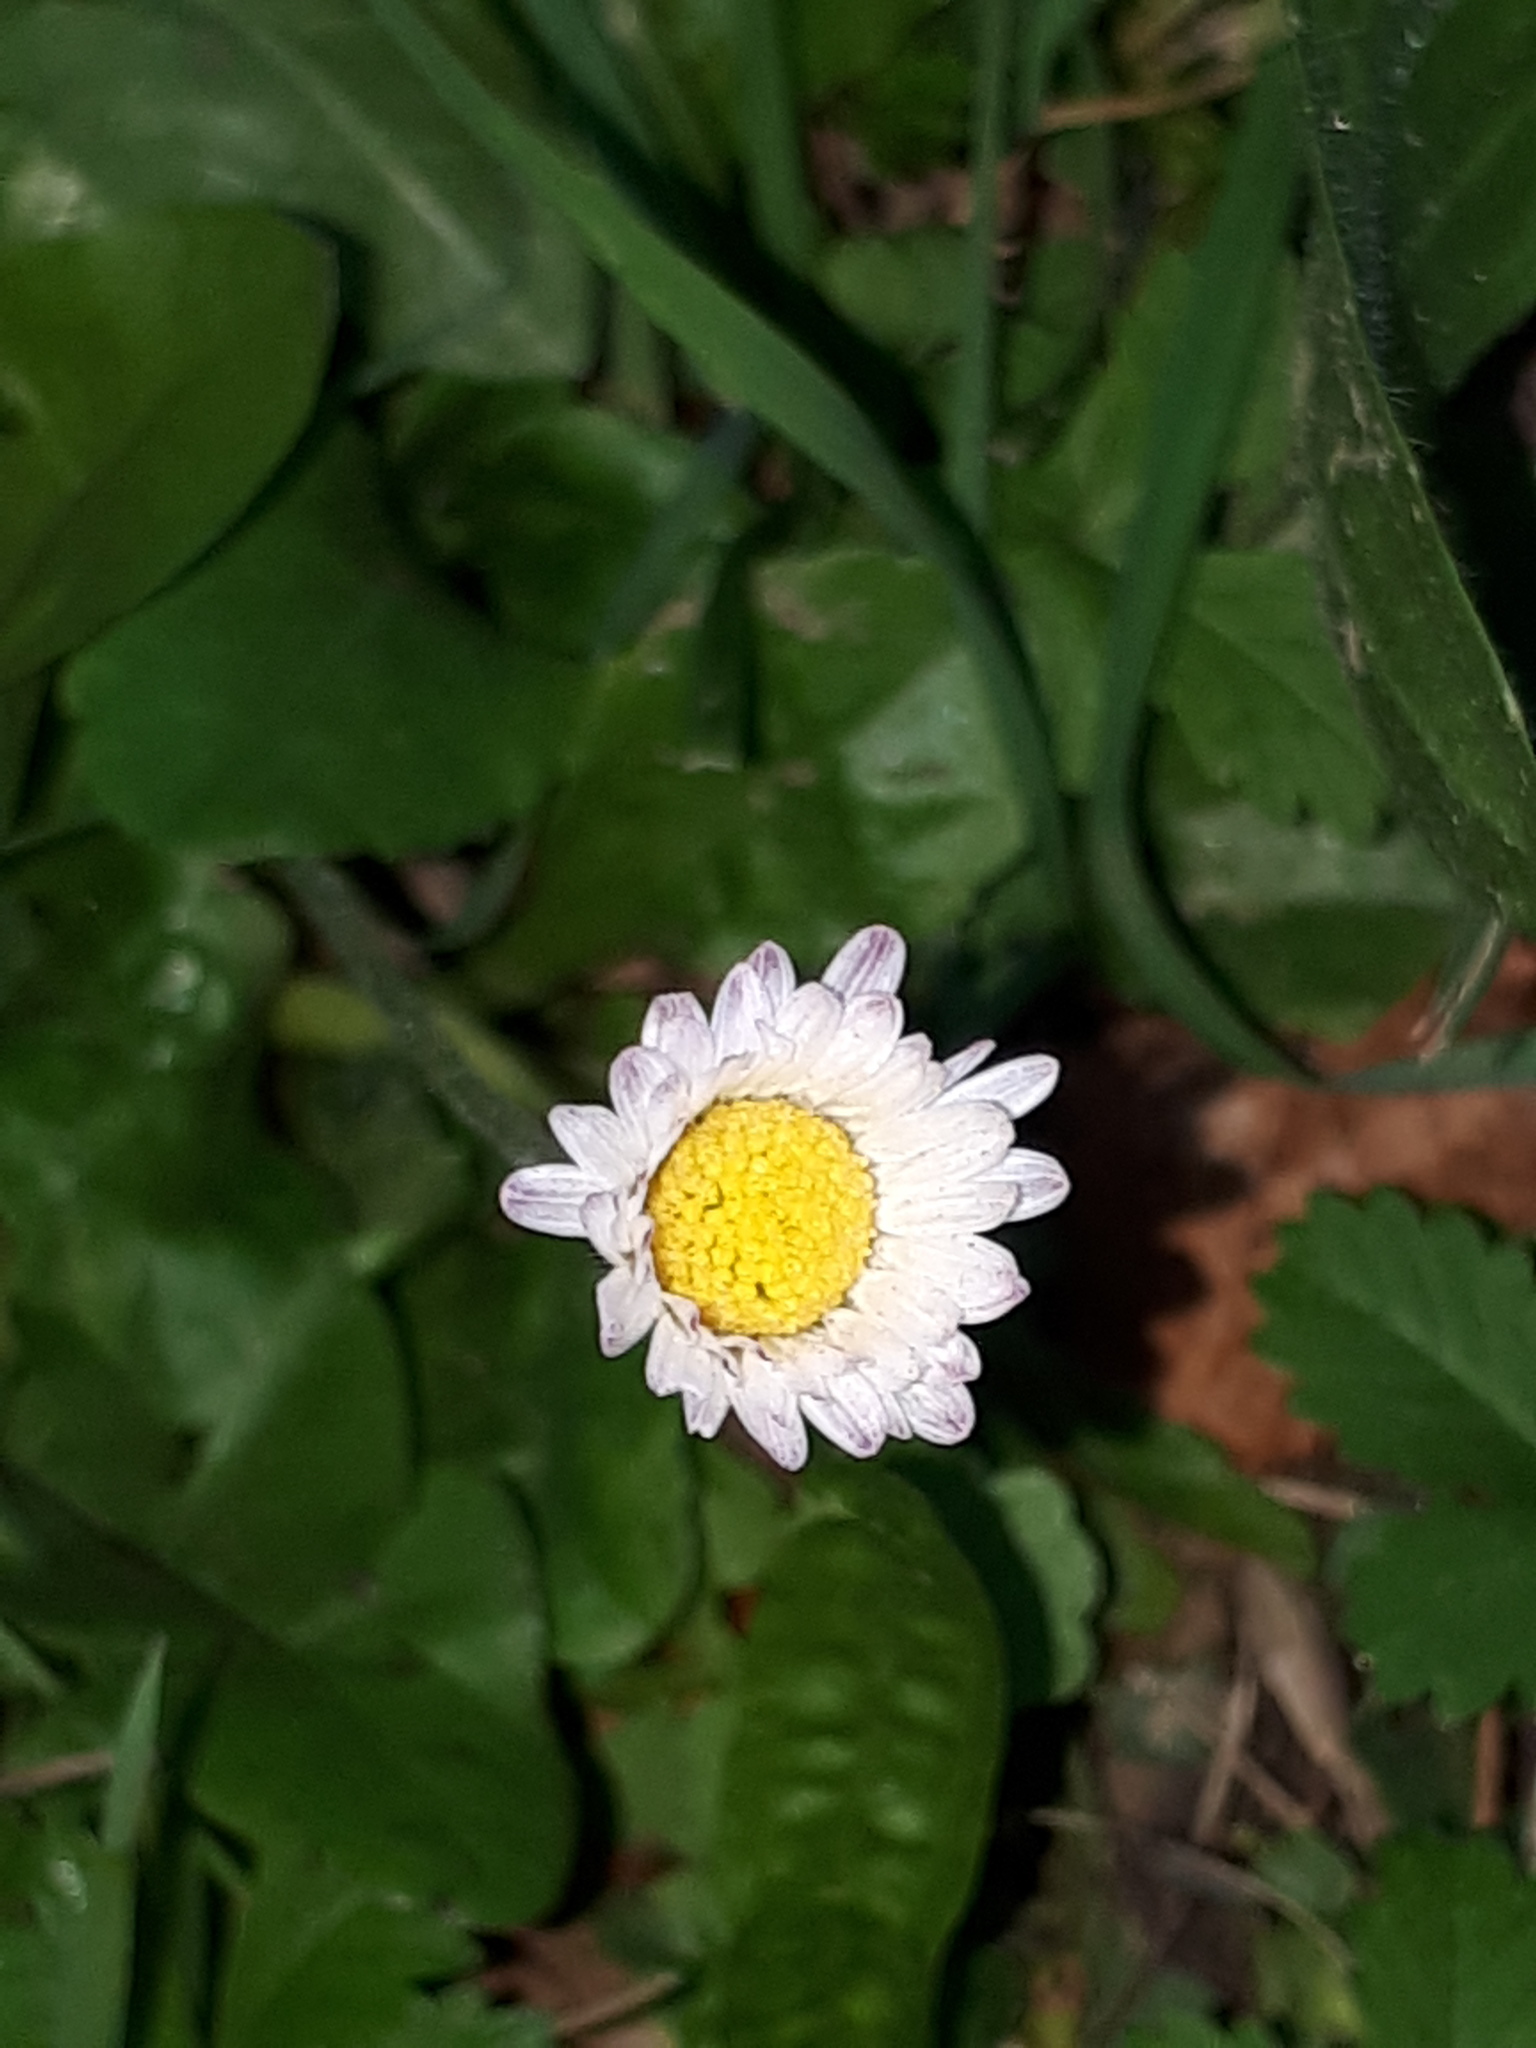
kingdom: Plantae
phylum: Tracheophyta
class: Magnoliopsida
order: Asterales
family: Asteraceae
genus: Bellis
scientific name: Bellis perennis
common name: Lawndaisy
